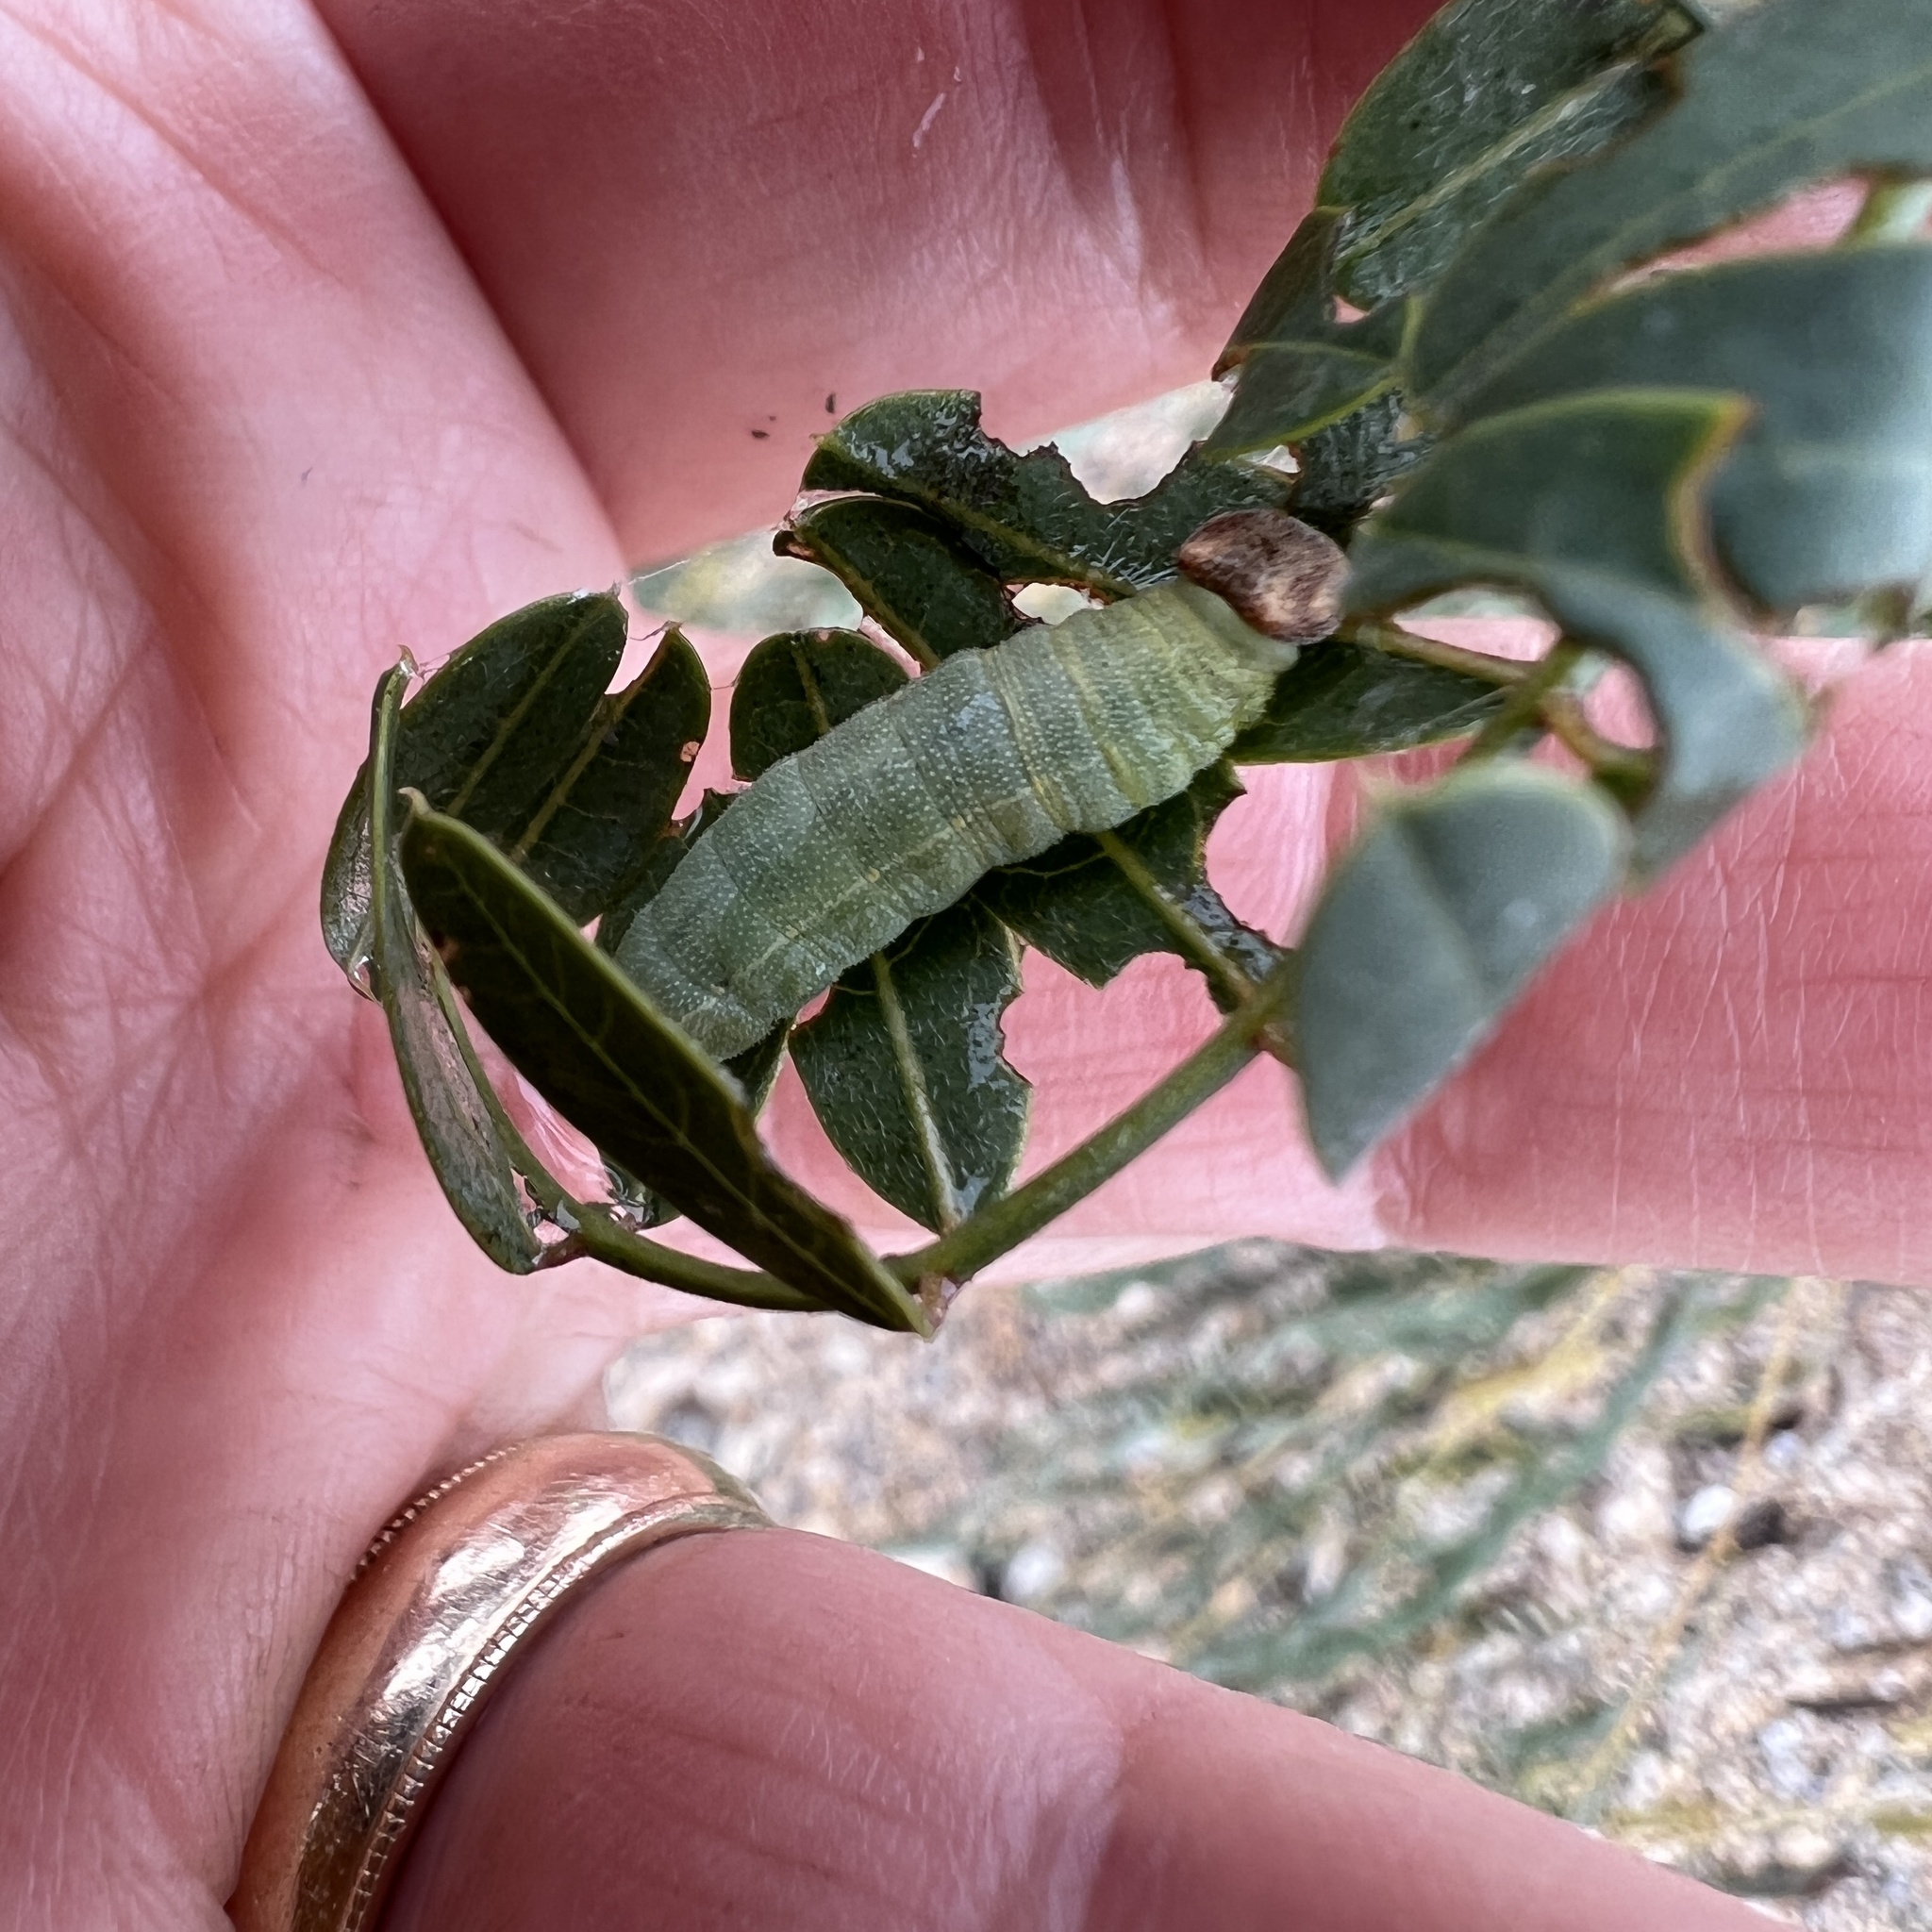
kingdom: Animalia
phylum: Arthropoda
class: Insecta
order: Lepidoptera
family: Hesperiidae
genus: Erynnis
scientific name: Erynnis funeralis
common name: Funereal duskywing
